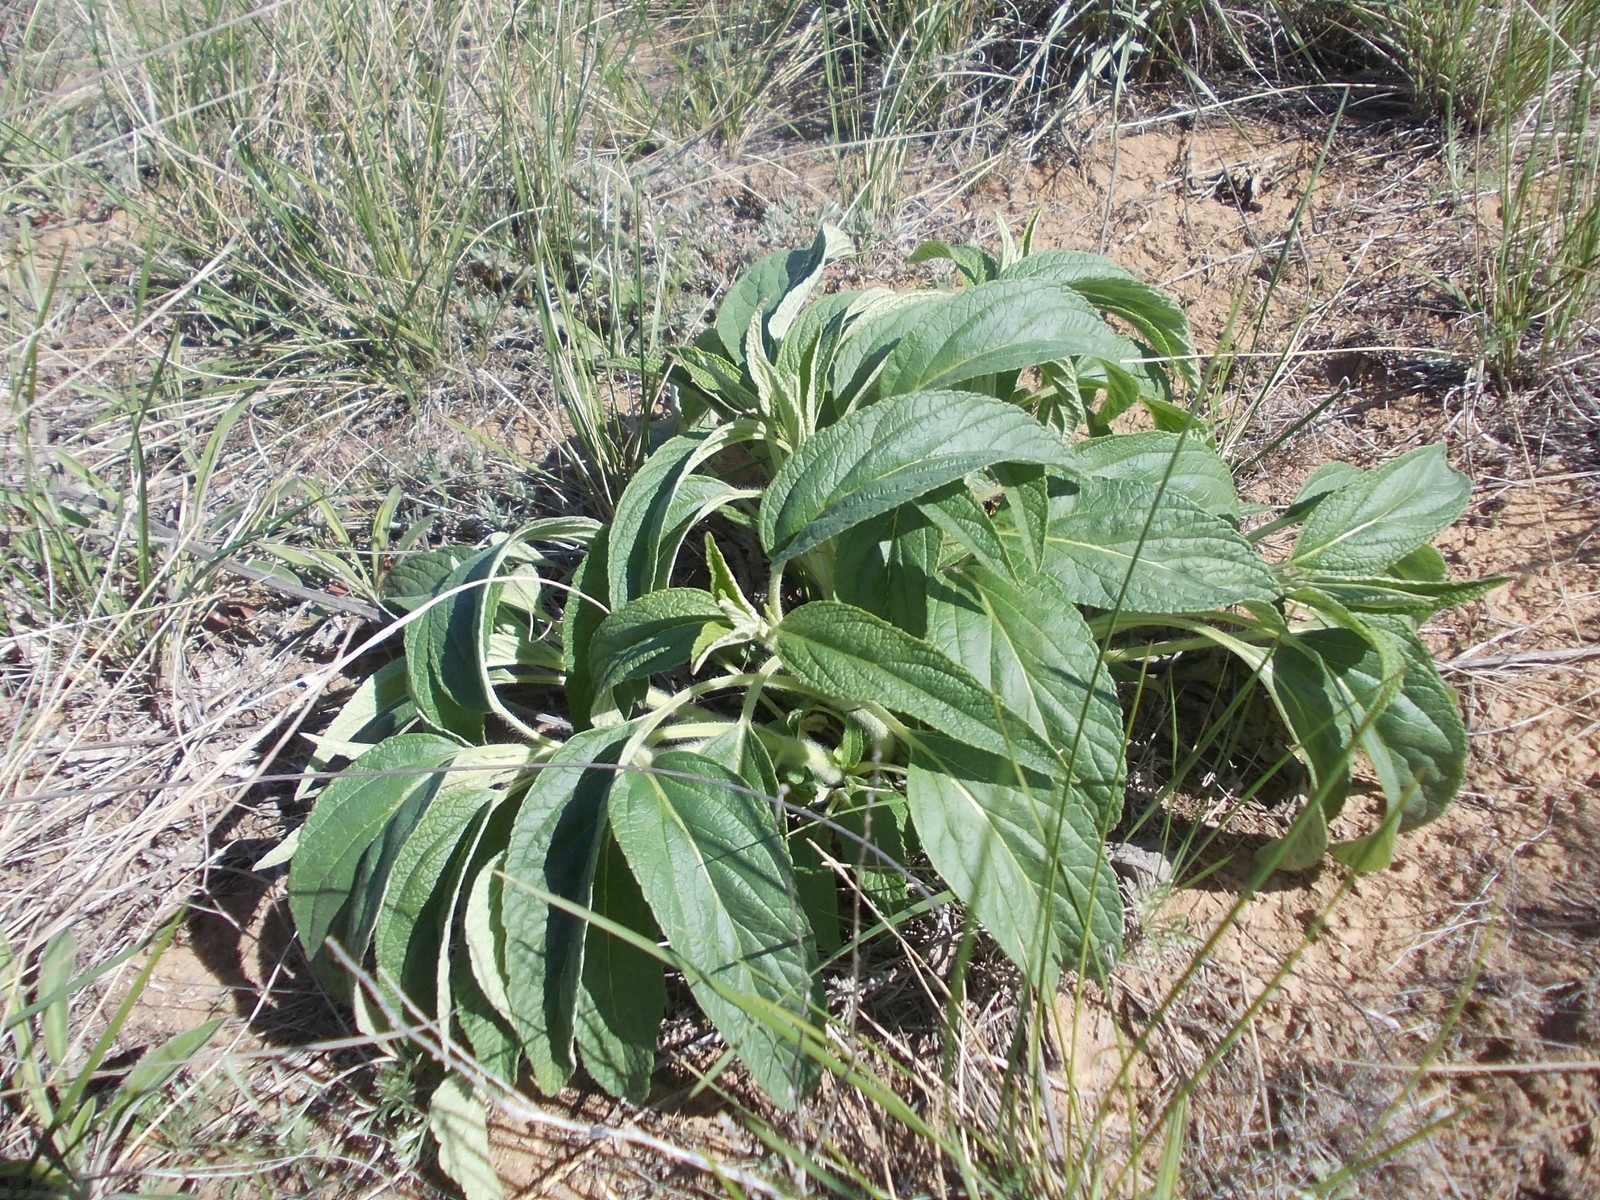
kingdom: Plantae
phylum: Tracheophyta
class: Magnoliopsida
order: Lamiales
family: Lamiaceae
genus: Phlomis
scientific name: Phlomis herba-venti
